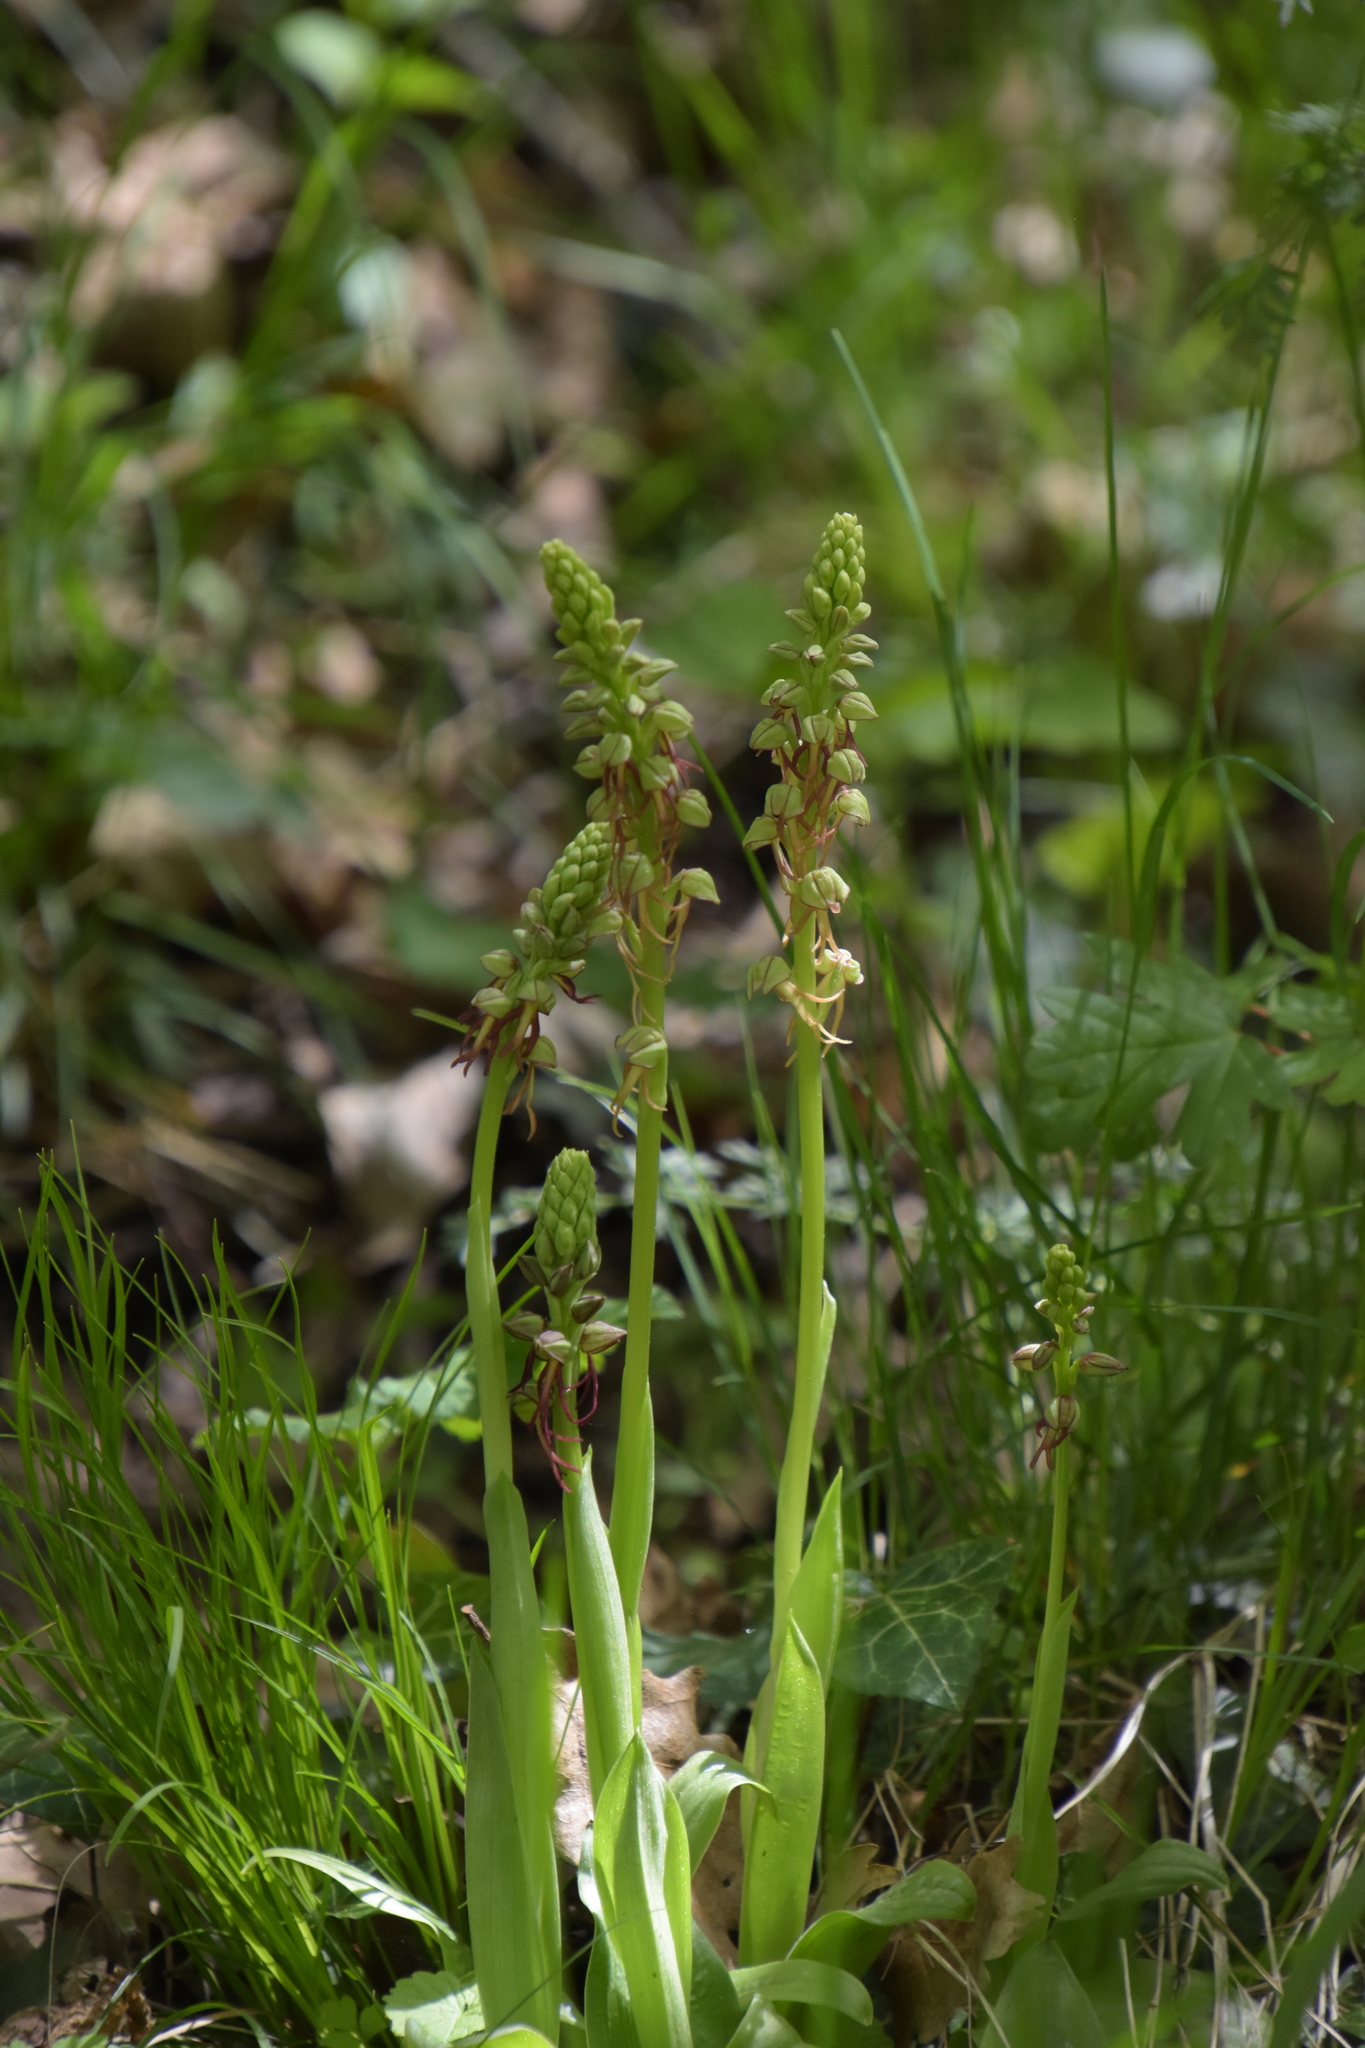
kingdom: Plantae
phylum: Tracheophyta
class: Liliopsida
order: Asparagales
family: Orchidaceae
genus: Orchis
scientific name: Orchis anthropophora
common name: Man orchid
